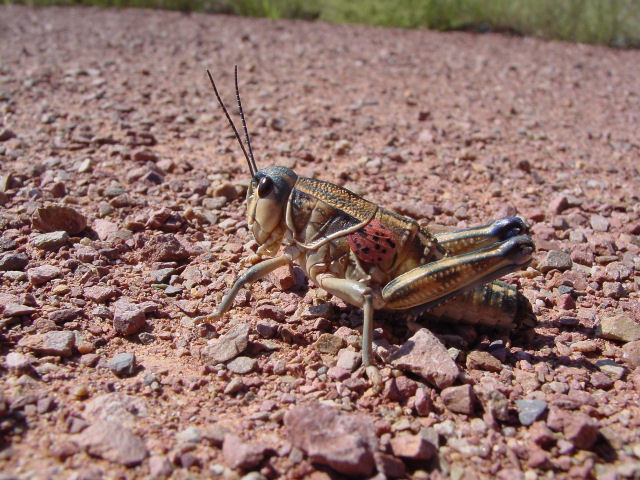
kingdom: Animalia
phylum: Arthropoda
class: Insecta
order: Orthoptera
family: Romaleidae
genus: Brachystola
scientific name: Brachystola magna
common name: Plains lubber grasshopper
